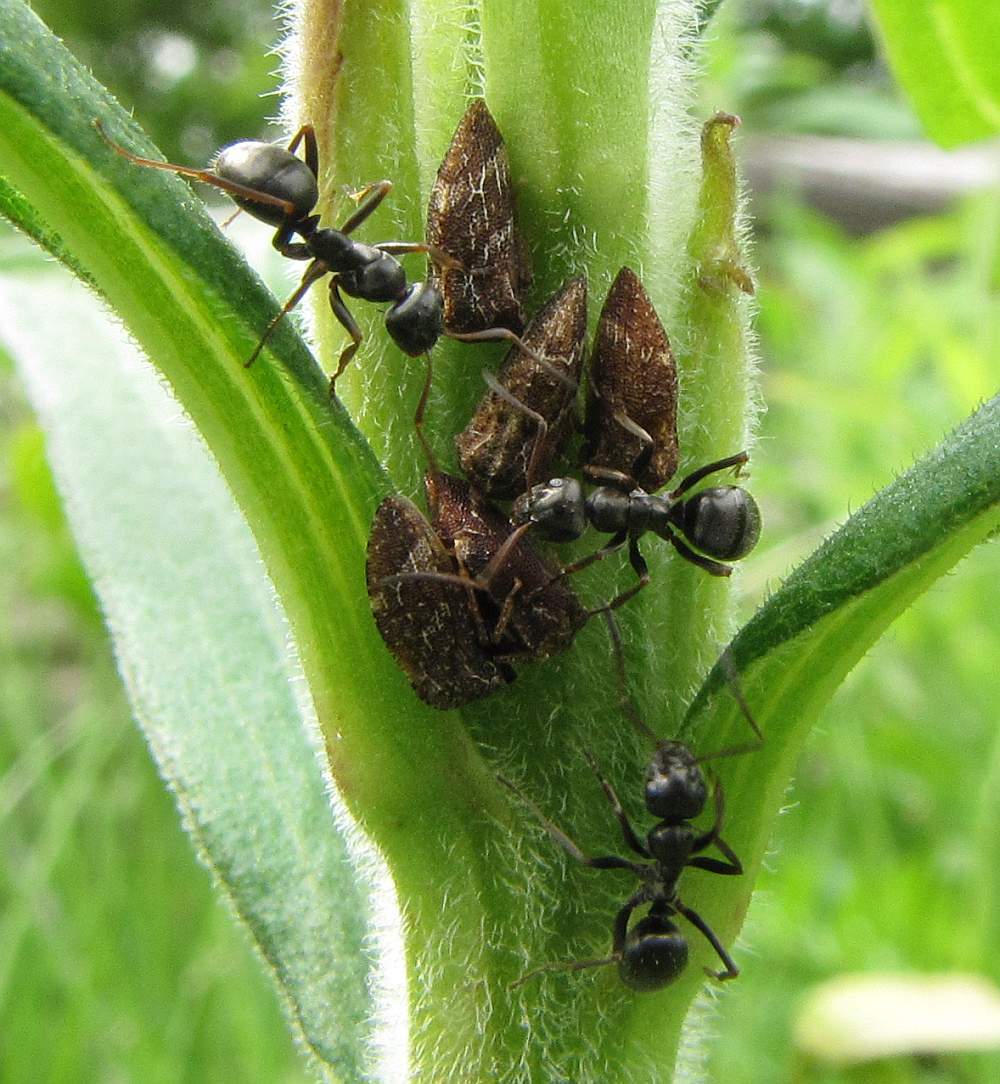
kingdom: Animalia
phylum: Arthropoda
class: Insecta
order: Hemiptera
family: Membracidae
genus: Publilia
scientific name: Publilia concava
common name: Aster treehopper
